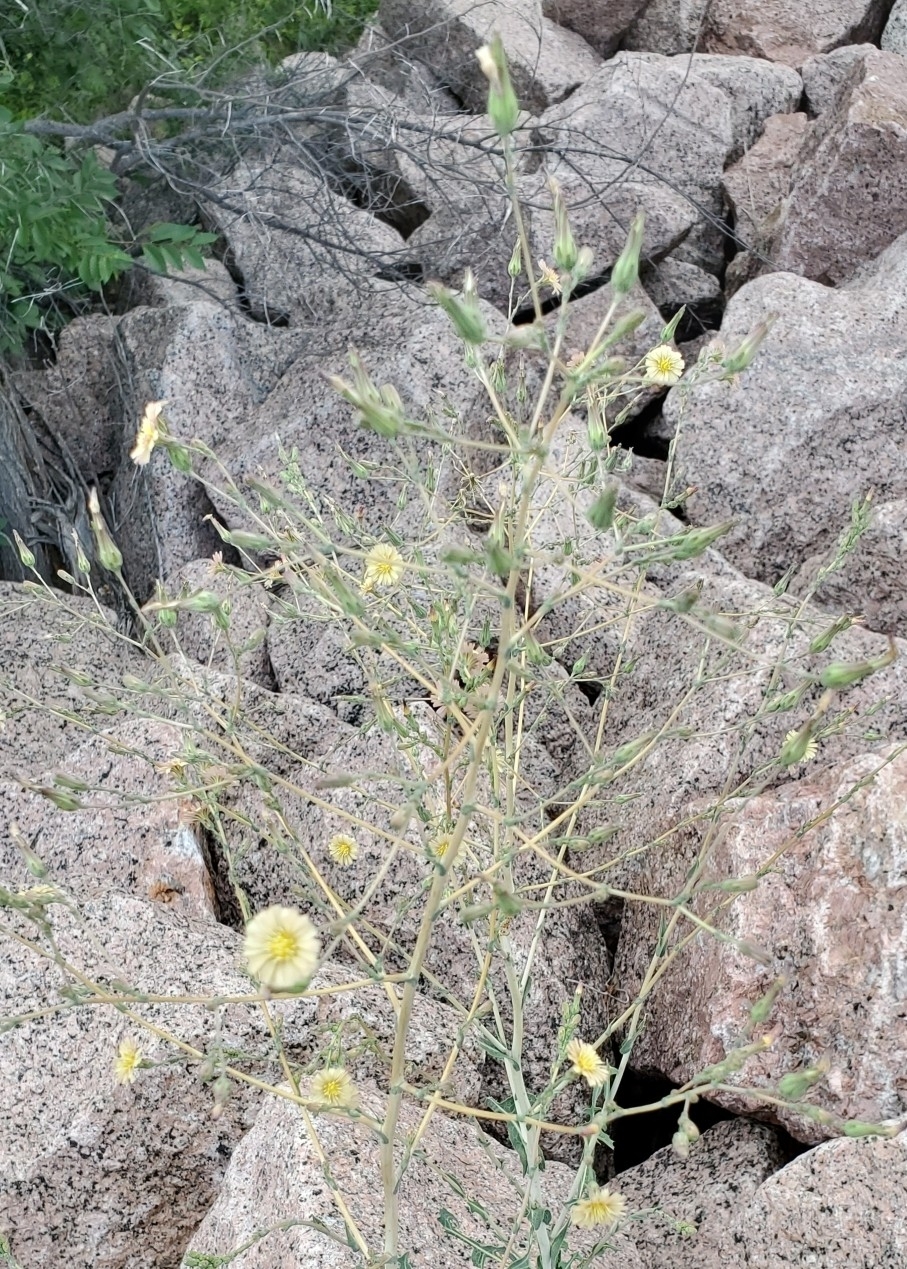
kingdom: Plantae
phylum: Tracheophyta
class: Magnoliopsida
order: Asterales
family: Asteraceae
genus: Lactuca
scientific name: Lactuca serriola
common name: Prickly lettuce
